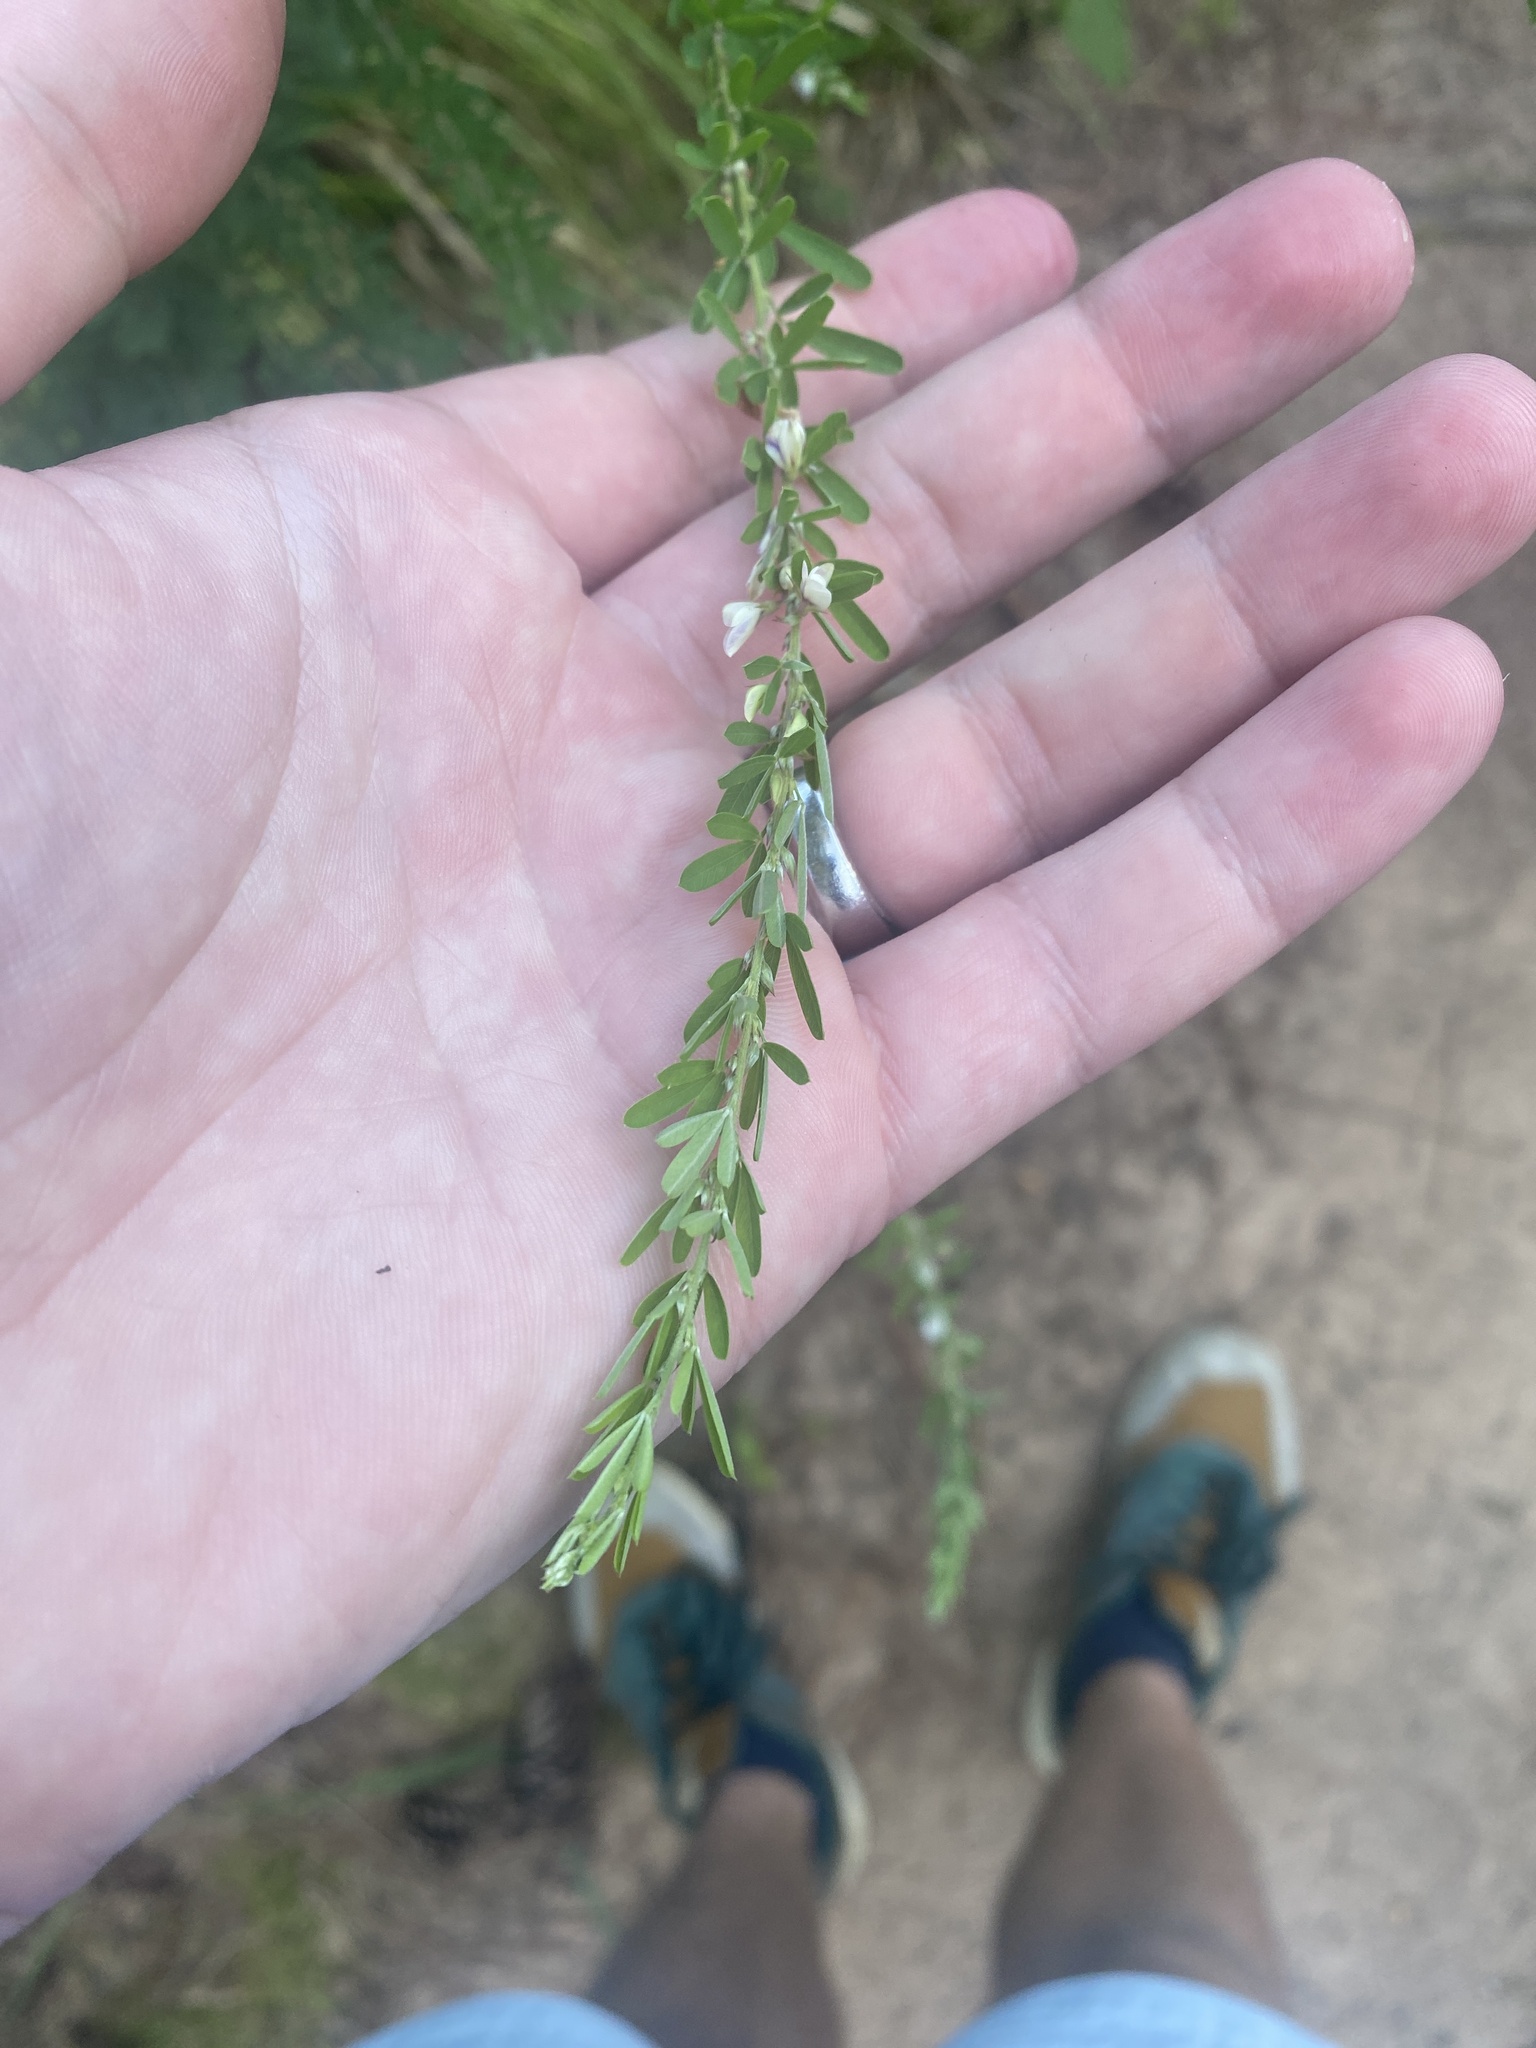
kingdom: Plantae
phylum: Tracheophyta
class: Magnoliopsida
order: Fabales
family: Fabaceae
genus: Lespedeza
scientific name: Lespedeza cuneata
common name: Chinese bush-clover
